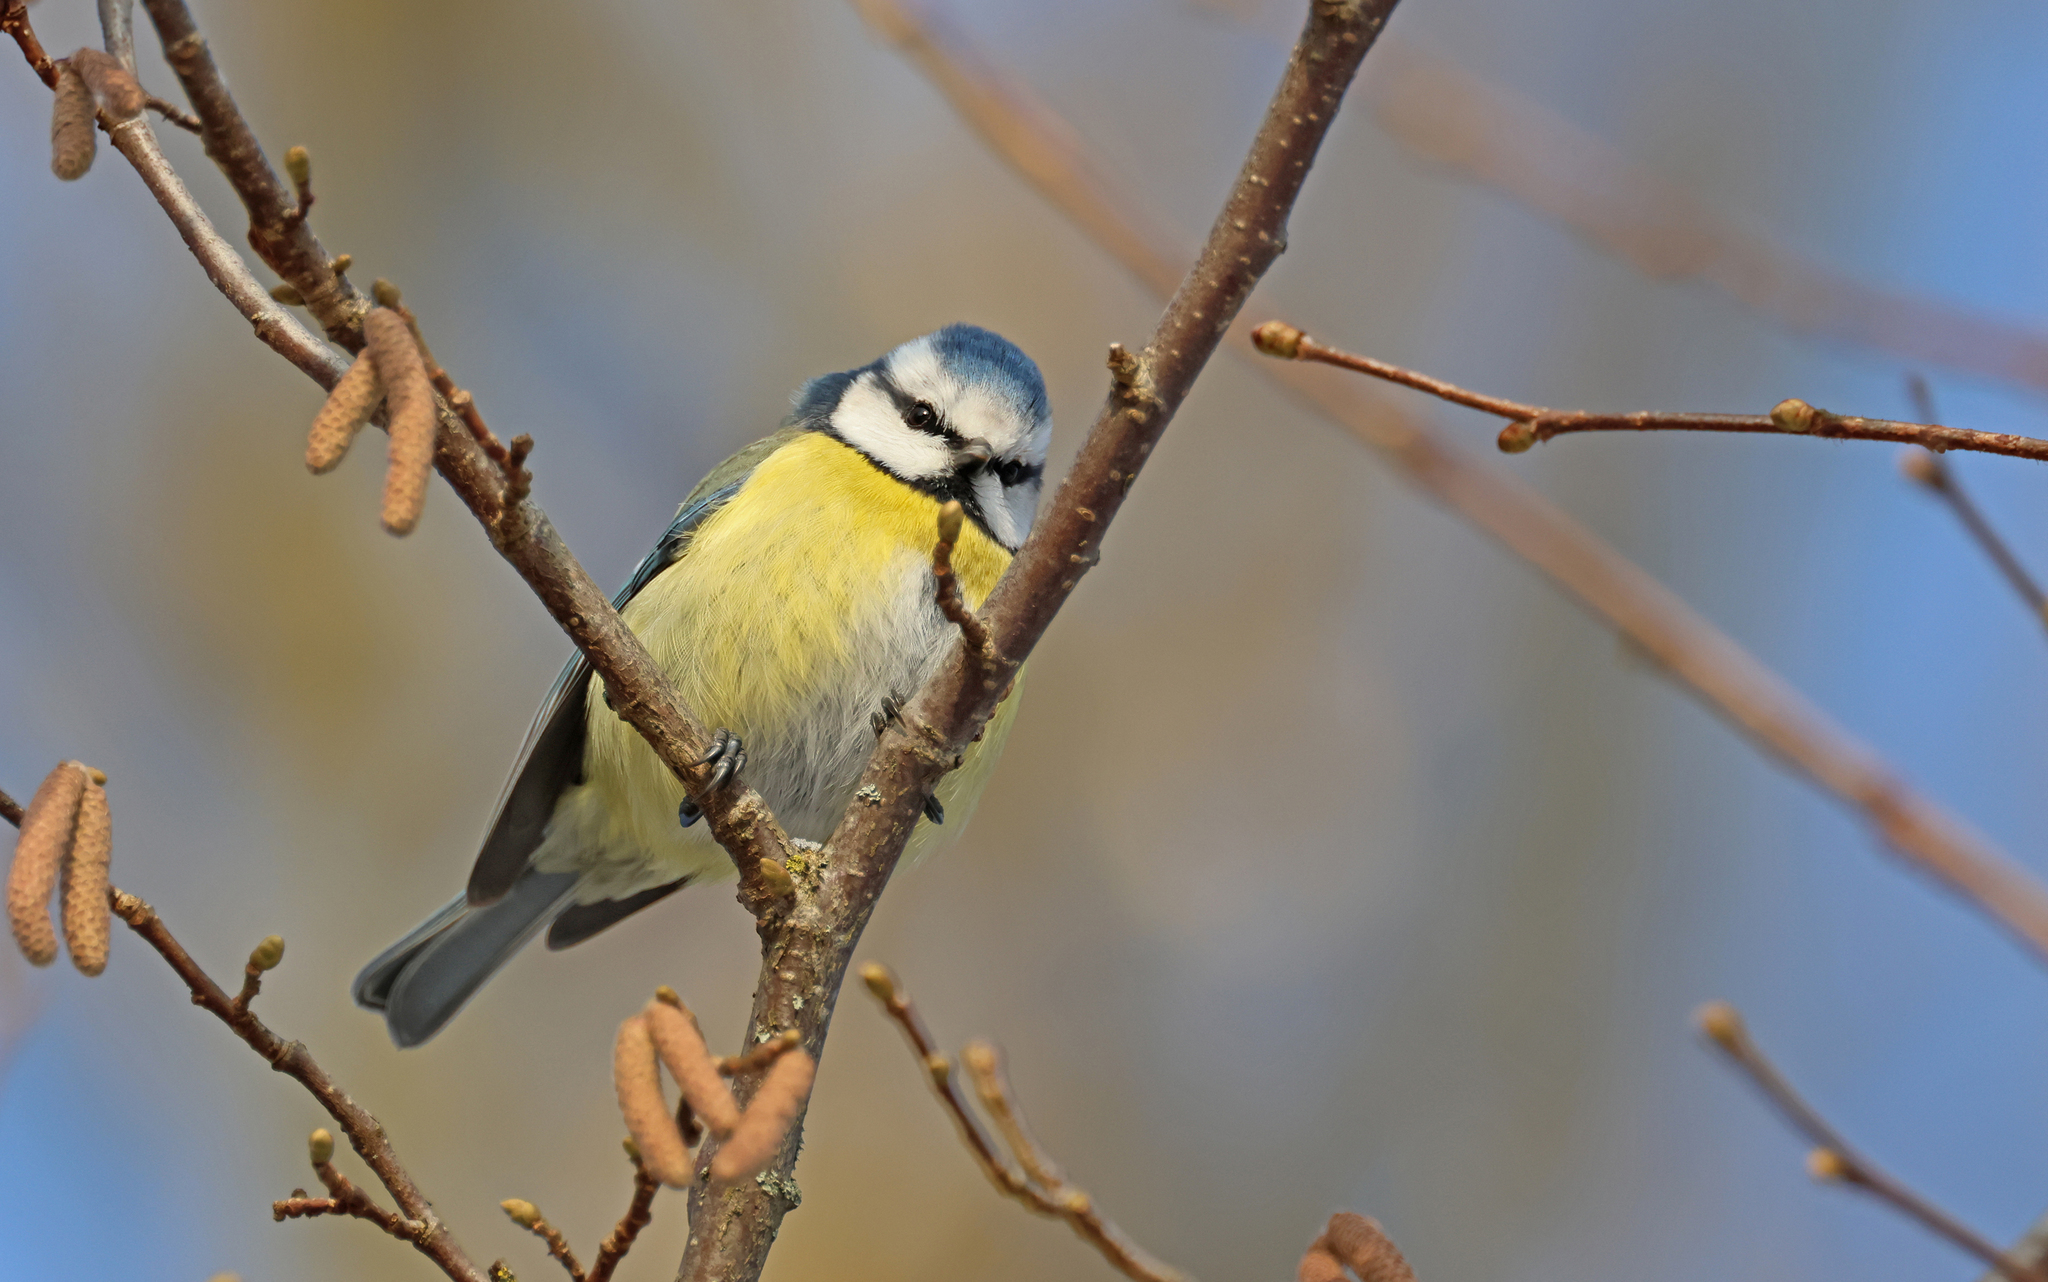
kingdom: Animalia
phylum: Chordata
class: Aves
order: Passeriformes
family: Paridae
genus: Cyanistes
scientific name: Cyanistes caeruleus
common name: Eurasian blue tit
